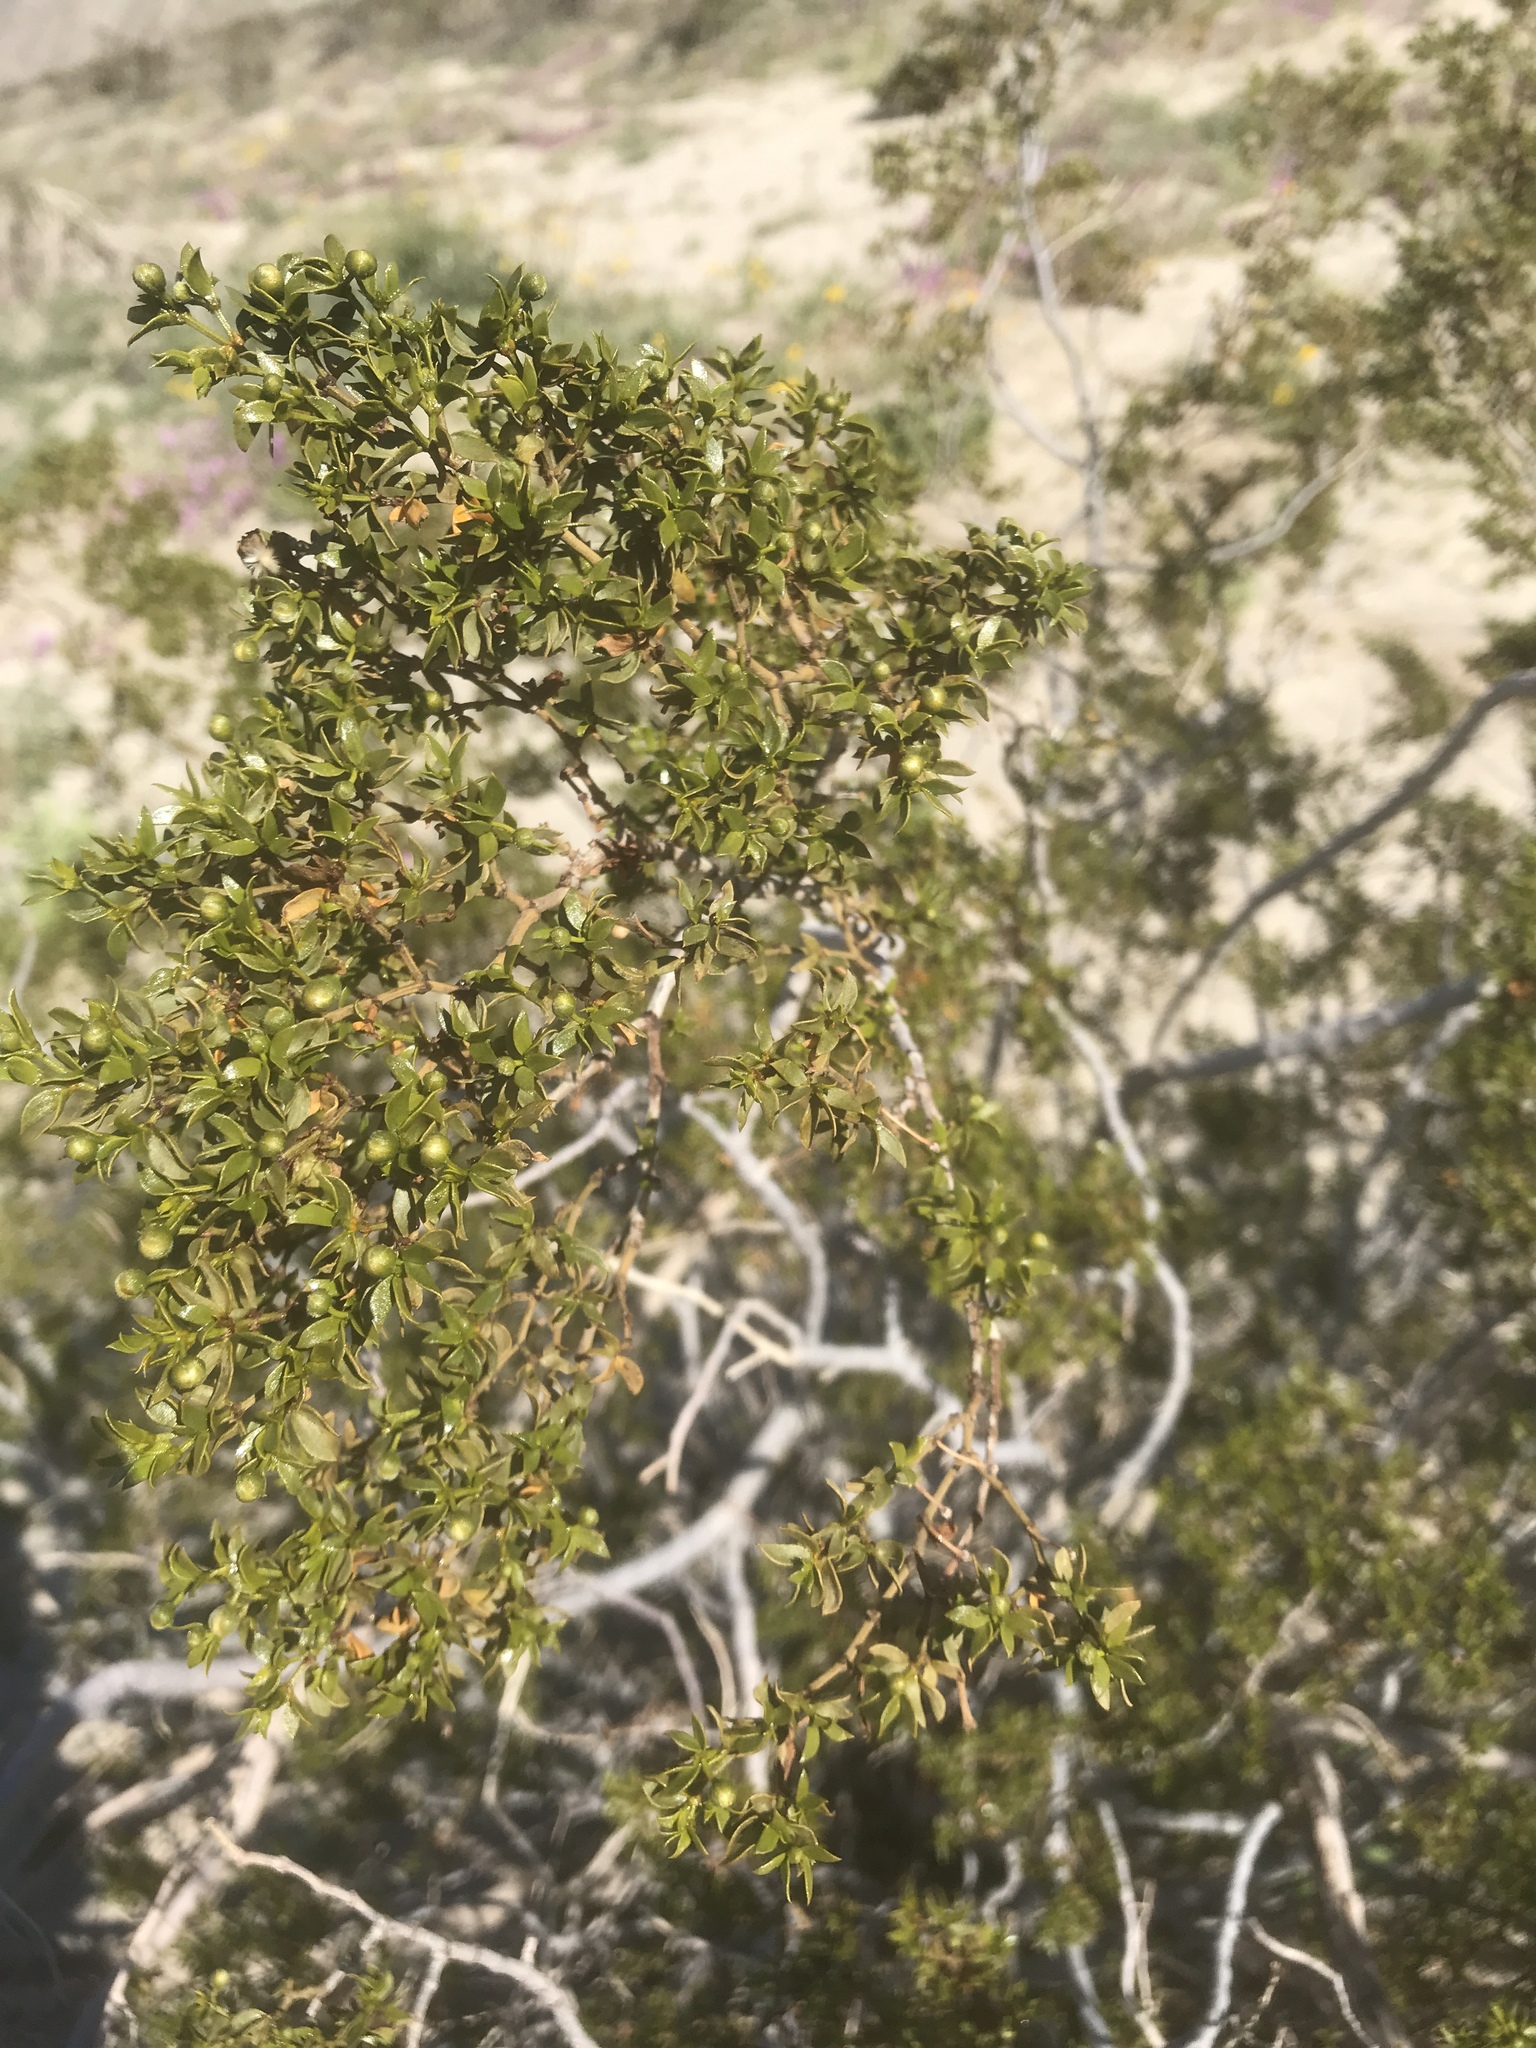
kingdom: Plantae
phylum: Tracheophyta
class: Magnoliopsida
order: Zygophyllales
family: Zygophyllaceae
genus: Larrea
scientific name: Larrea tridentata
